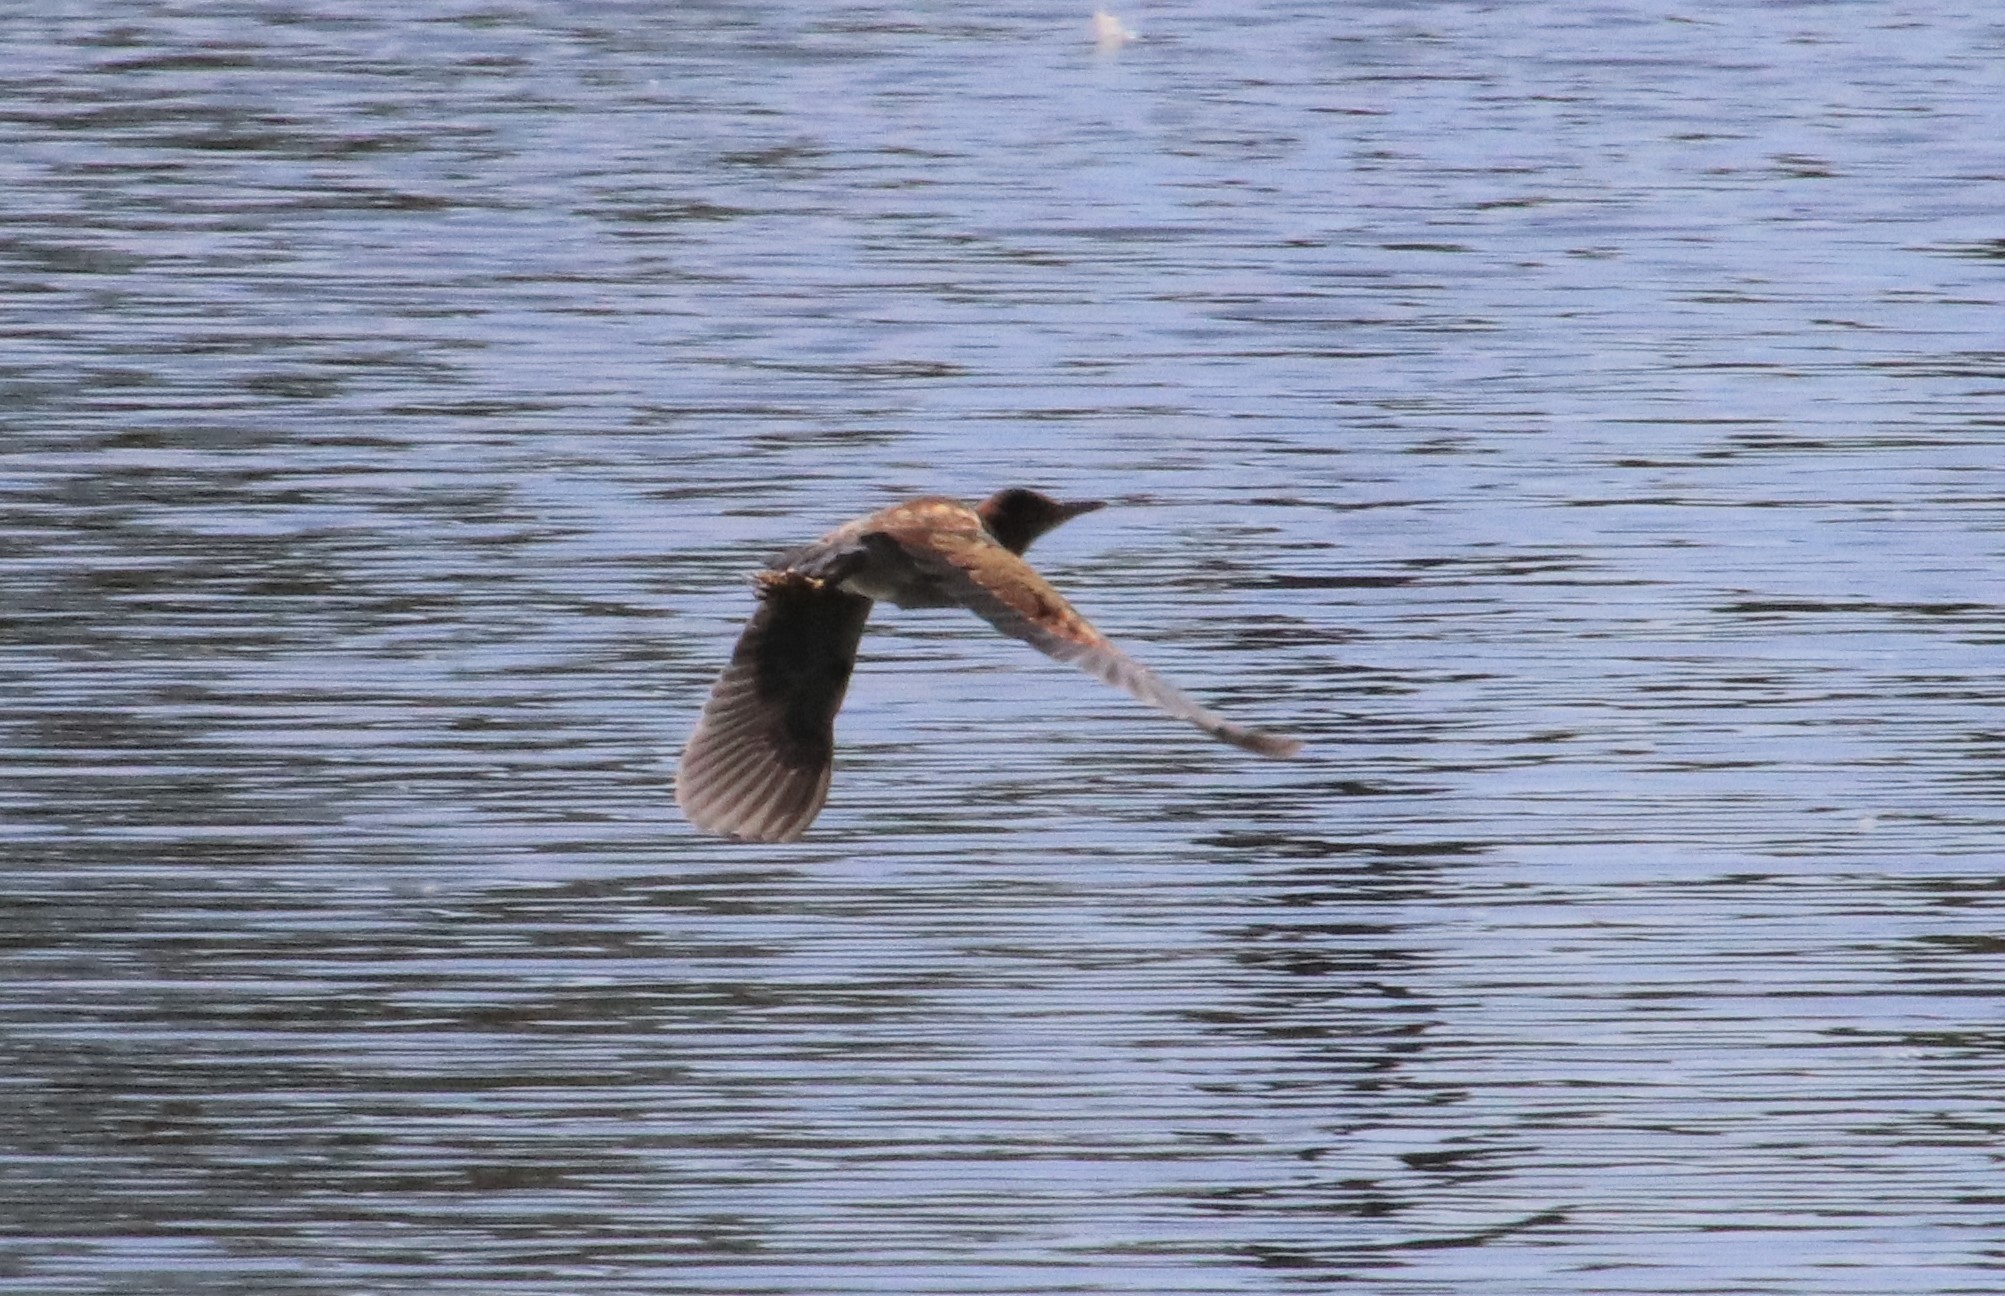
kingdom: Animalia
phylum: Chordata
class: Aves
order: Pelecaniformes
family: Ardeidae
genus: Ixobrychus
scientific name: Ixobrychus exilis
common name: Least bittern
